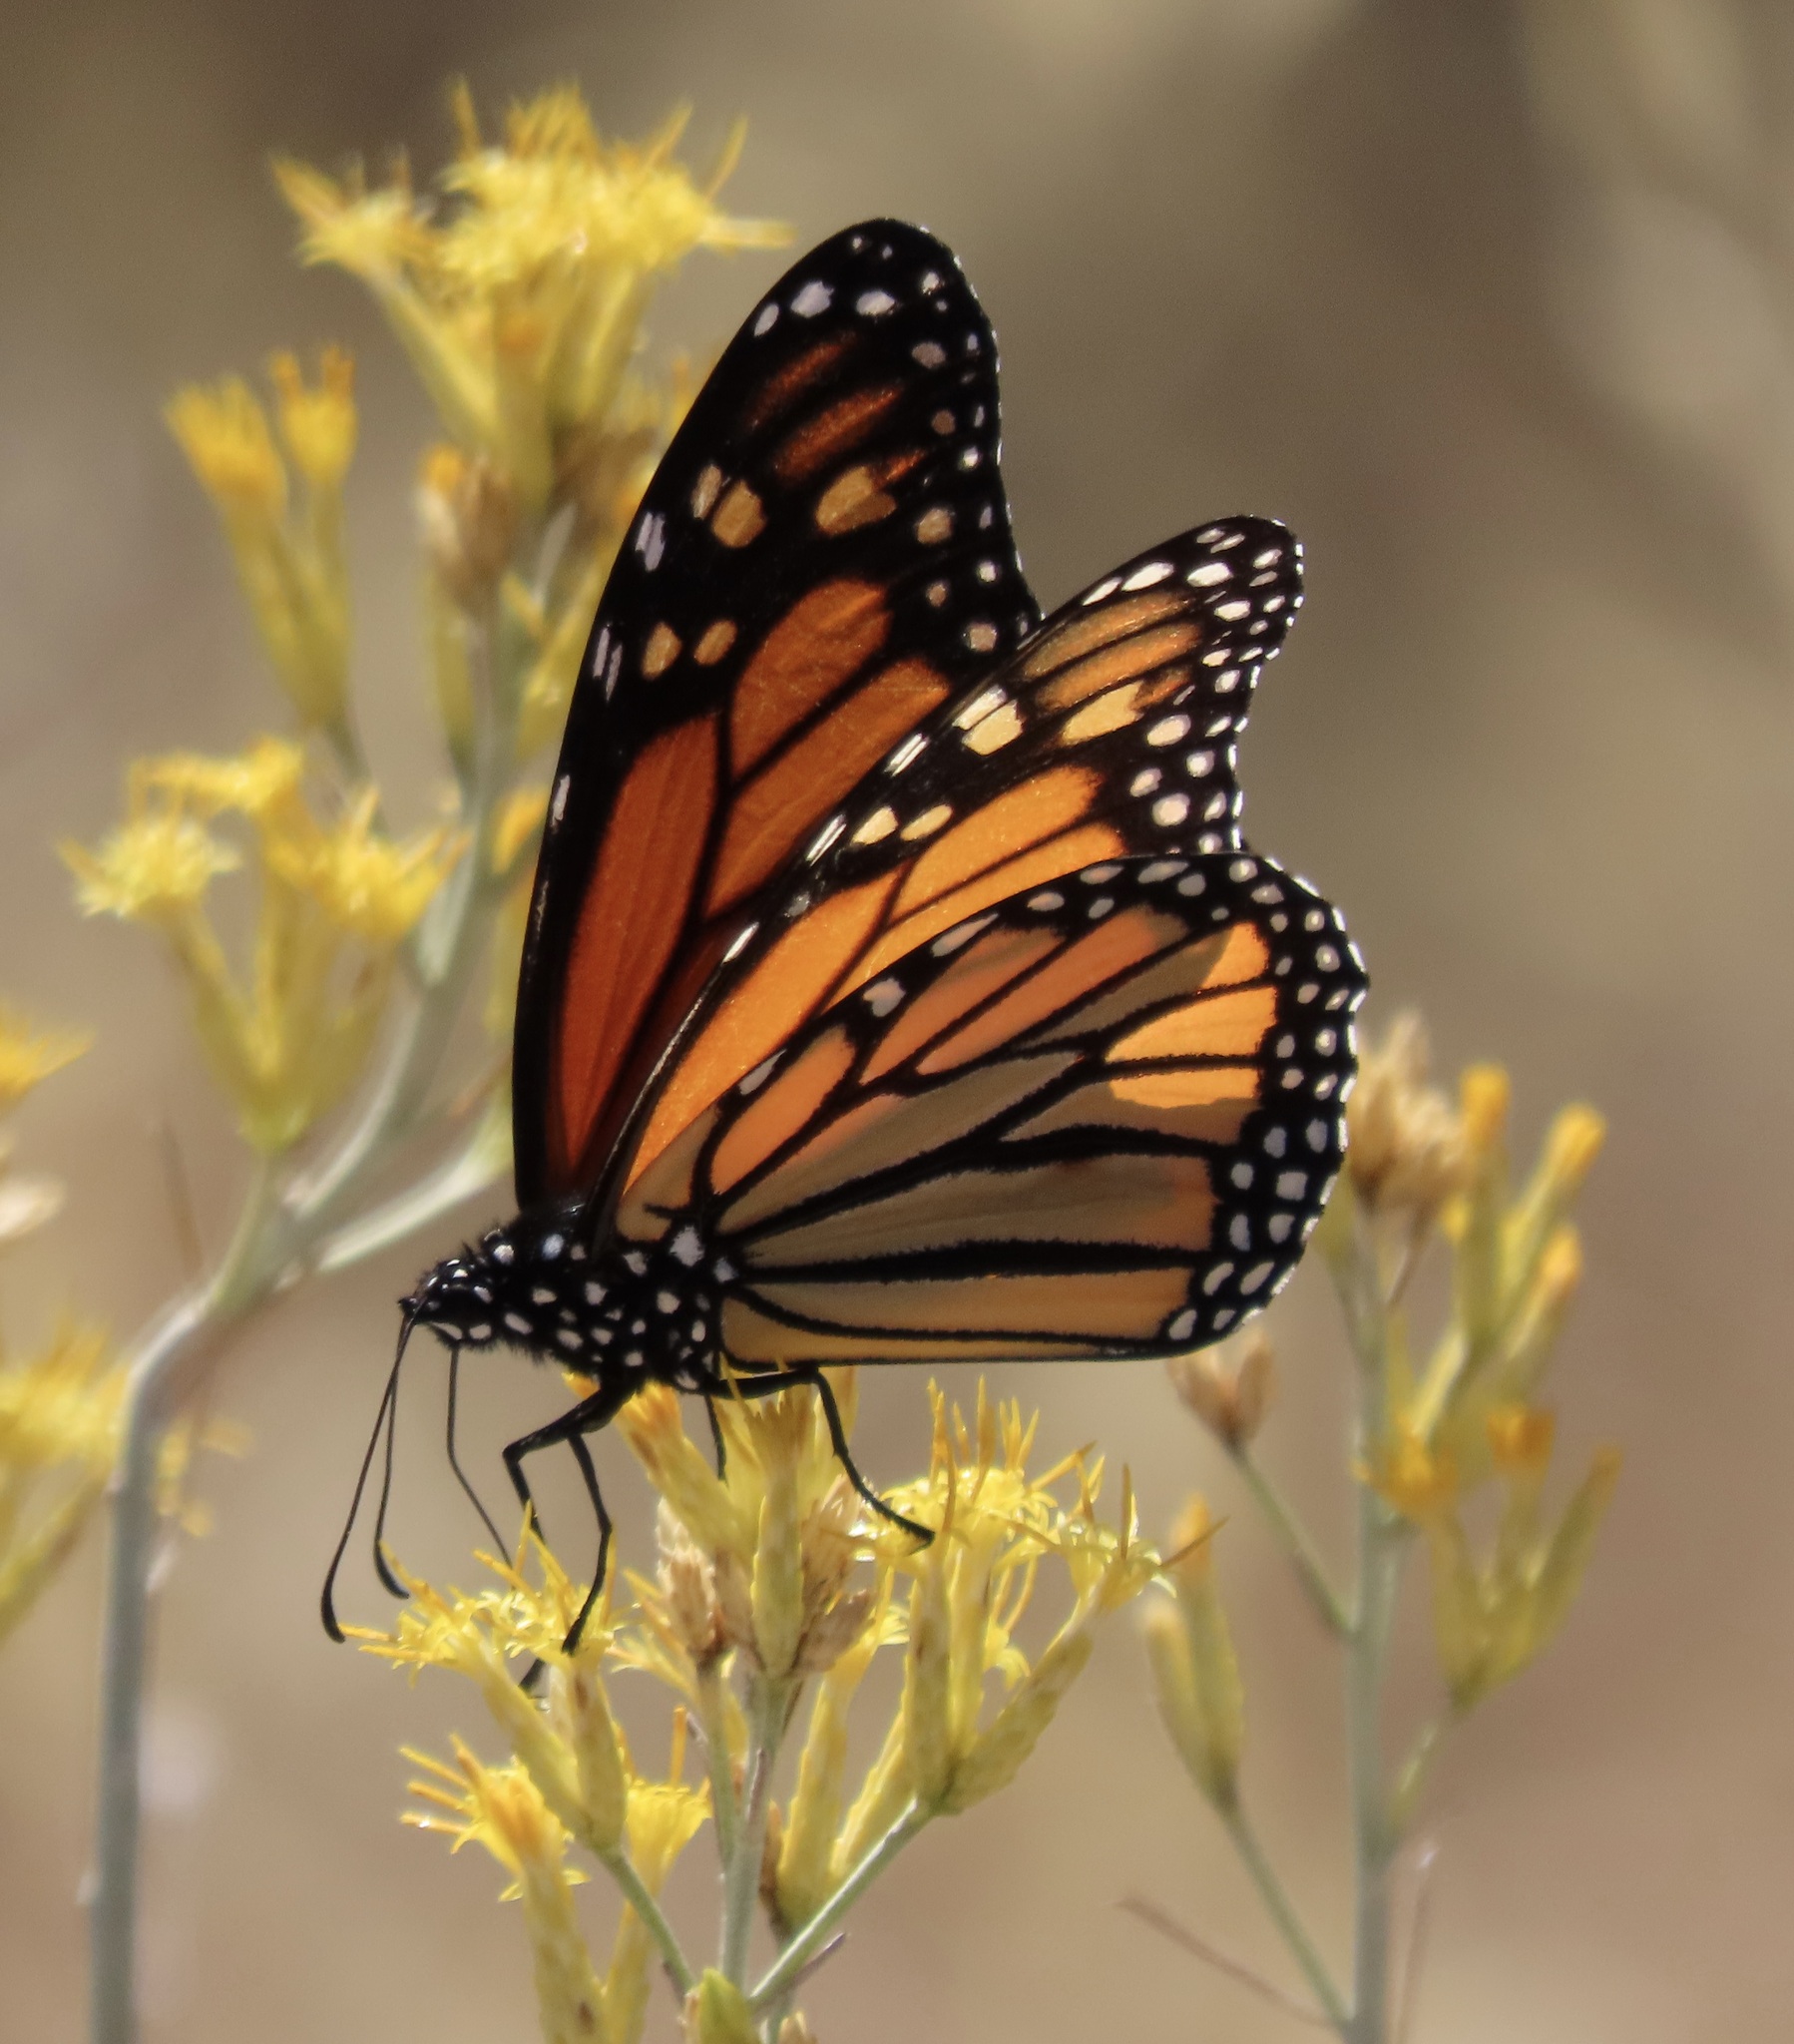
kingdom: Animalia
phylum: Arthropoda
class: Insecta
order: Lepidoptera
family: Nymphalidae
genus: Danaus
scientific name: Danaus plexippus
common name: Monarch
